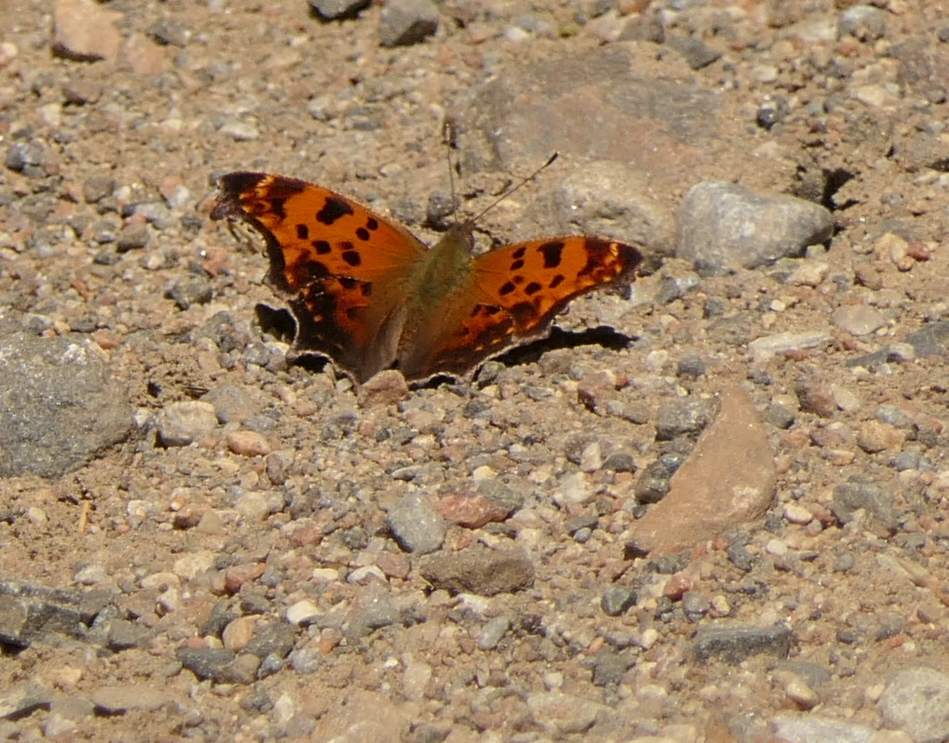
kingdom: Animalia
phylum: Arthropoda
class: Insecta
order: Lepidoptera
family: Nymphalidae
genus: Polygonia
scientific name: Polygonia comma
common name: Eastern comma
